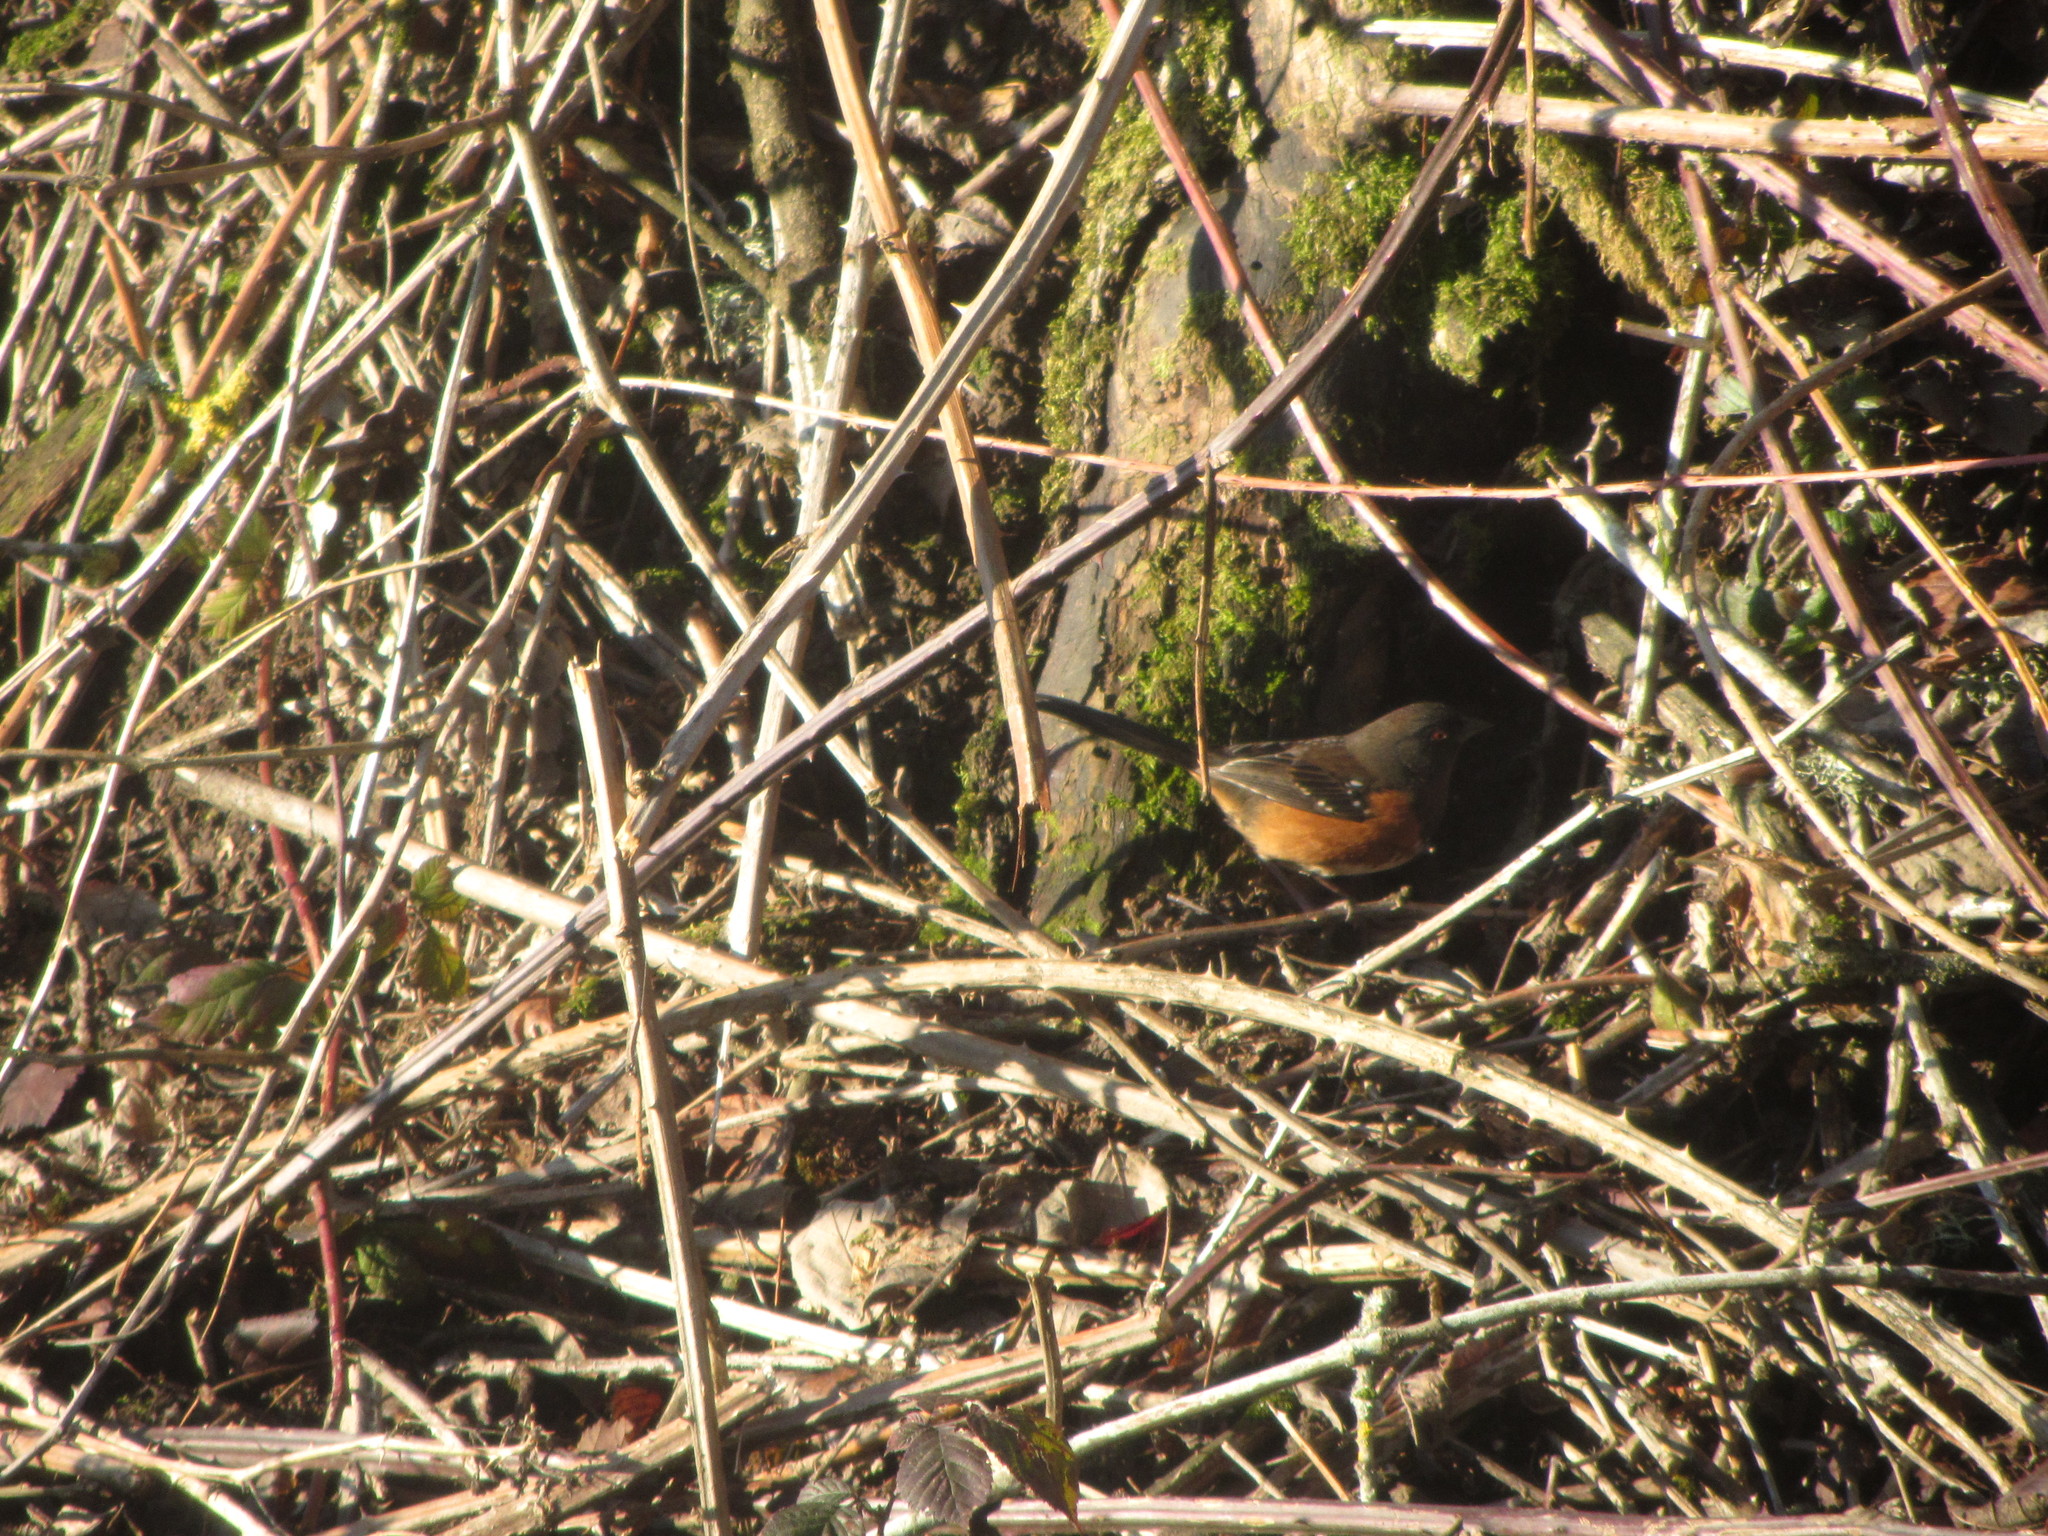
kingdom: Animalia
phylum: Chordata
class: Aves
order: Passeriformes
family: Passerellidae
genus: Pipilo
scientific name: Pipilo maculatus
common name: Spotted towhee
